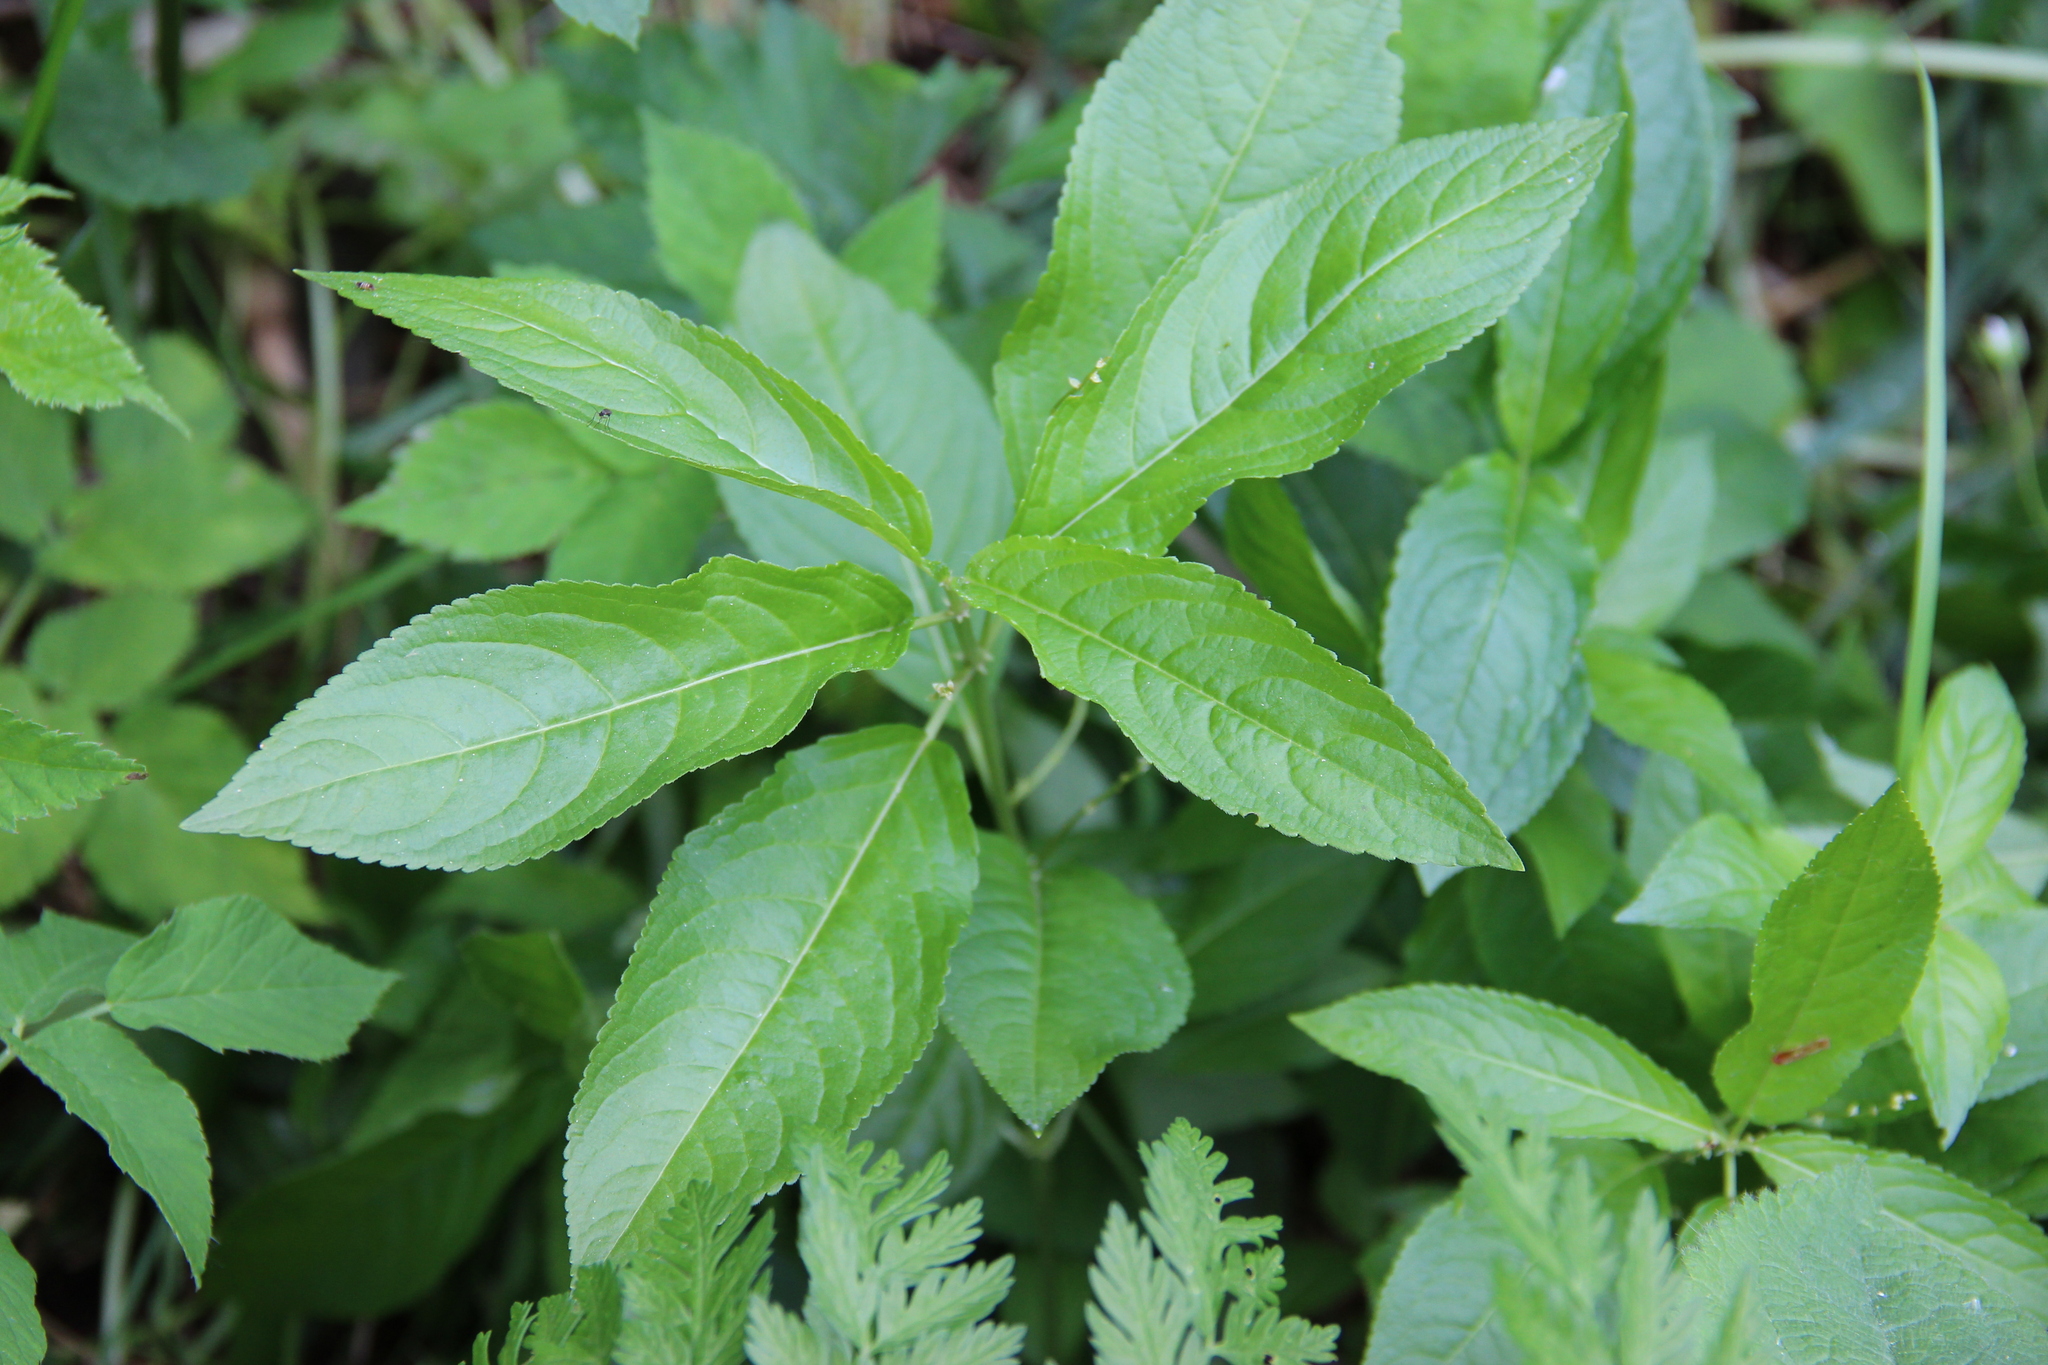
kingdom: Plantae
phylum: Tracheophyta
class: Magnoliopsida
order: Malpighiales
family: Euphorbiaceae
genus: Mercurialis
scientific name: Mercurialis perennis
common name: Dog mercury
